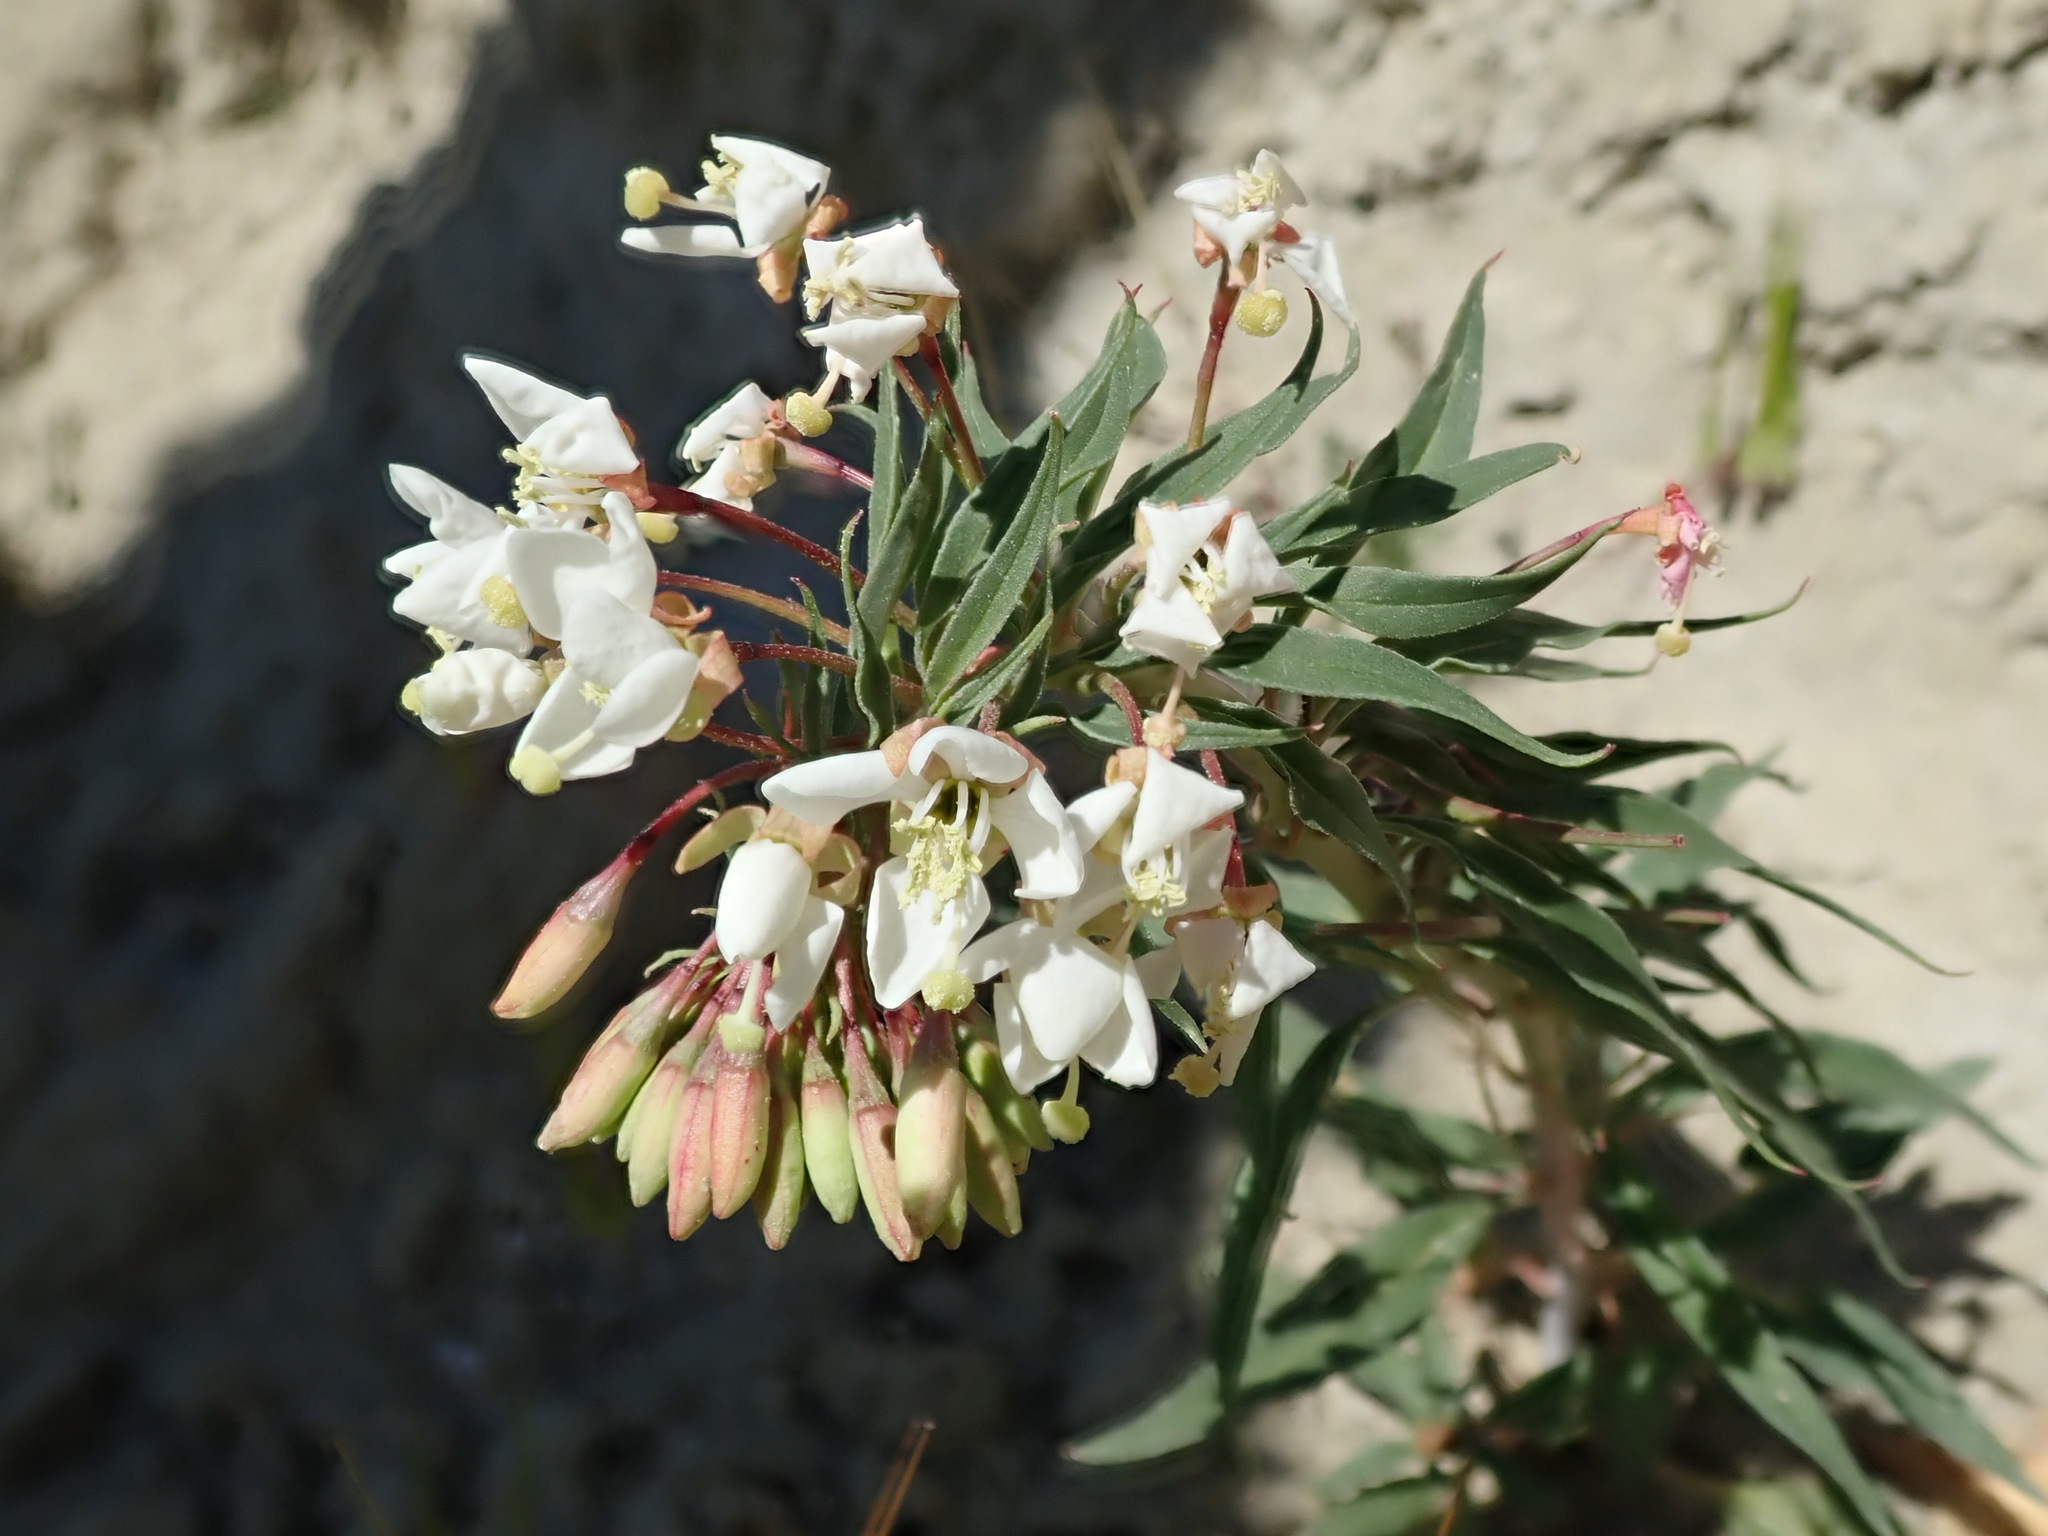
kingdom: Plantae
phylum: Tracheophyta
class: Magnoliopsida
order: Myrtales
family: Onagraceae
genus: Eremothera
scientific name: Eremothera boothii
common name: Booth's evening primrose
